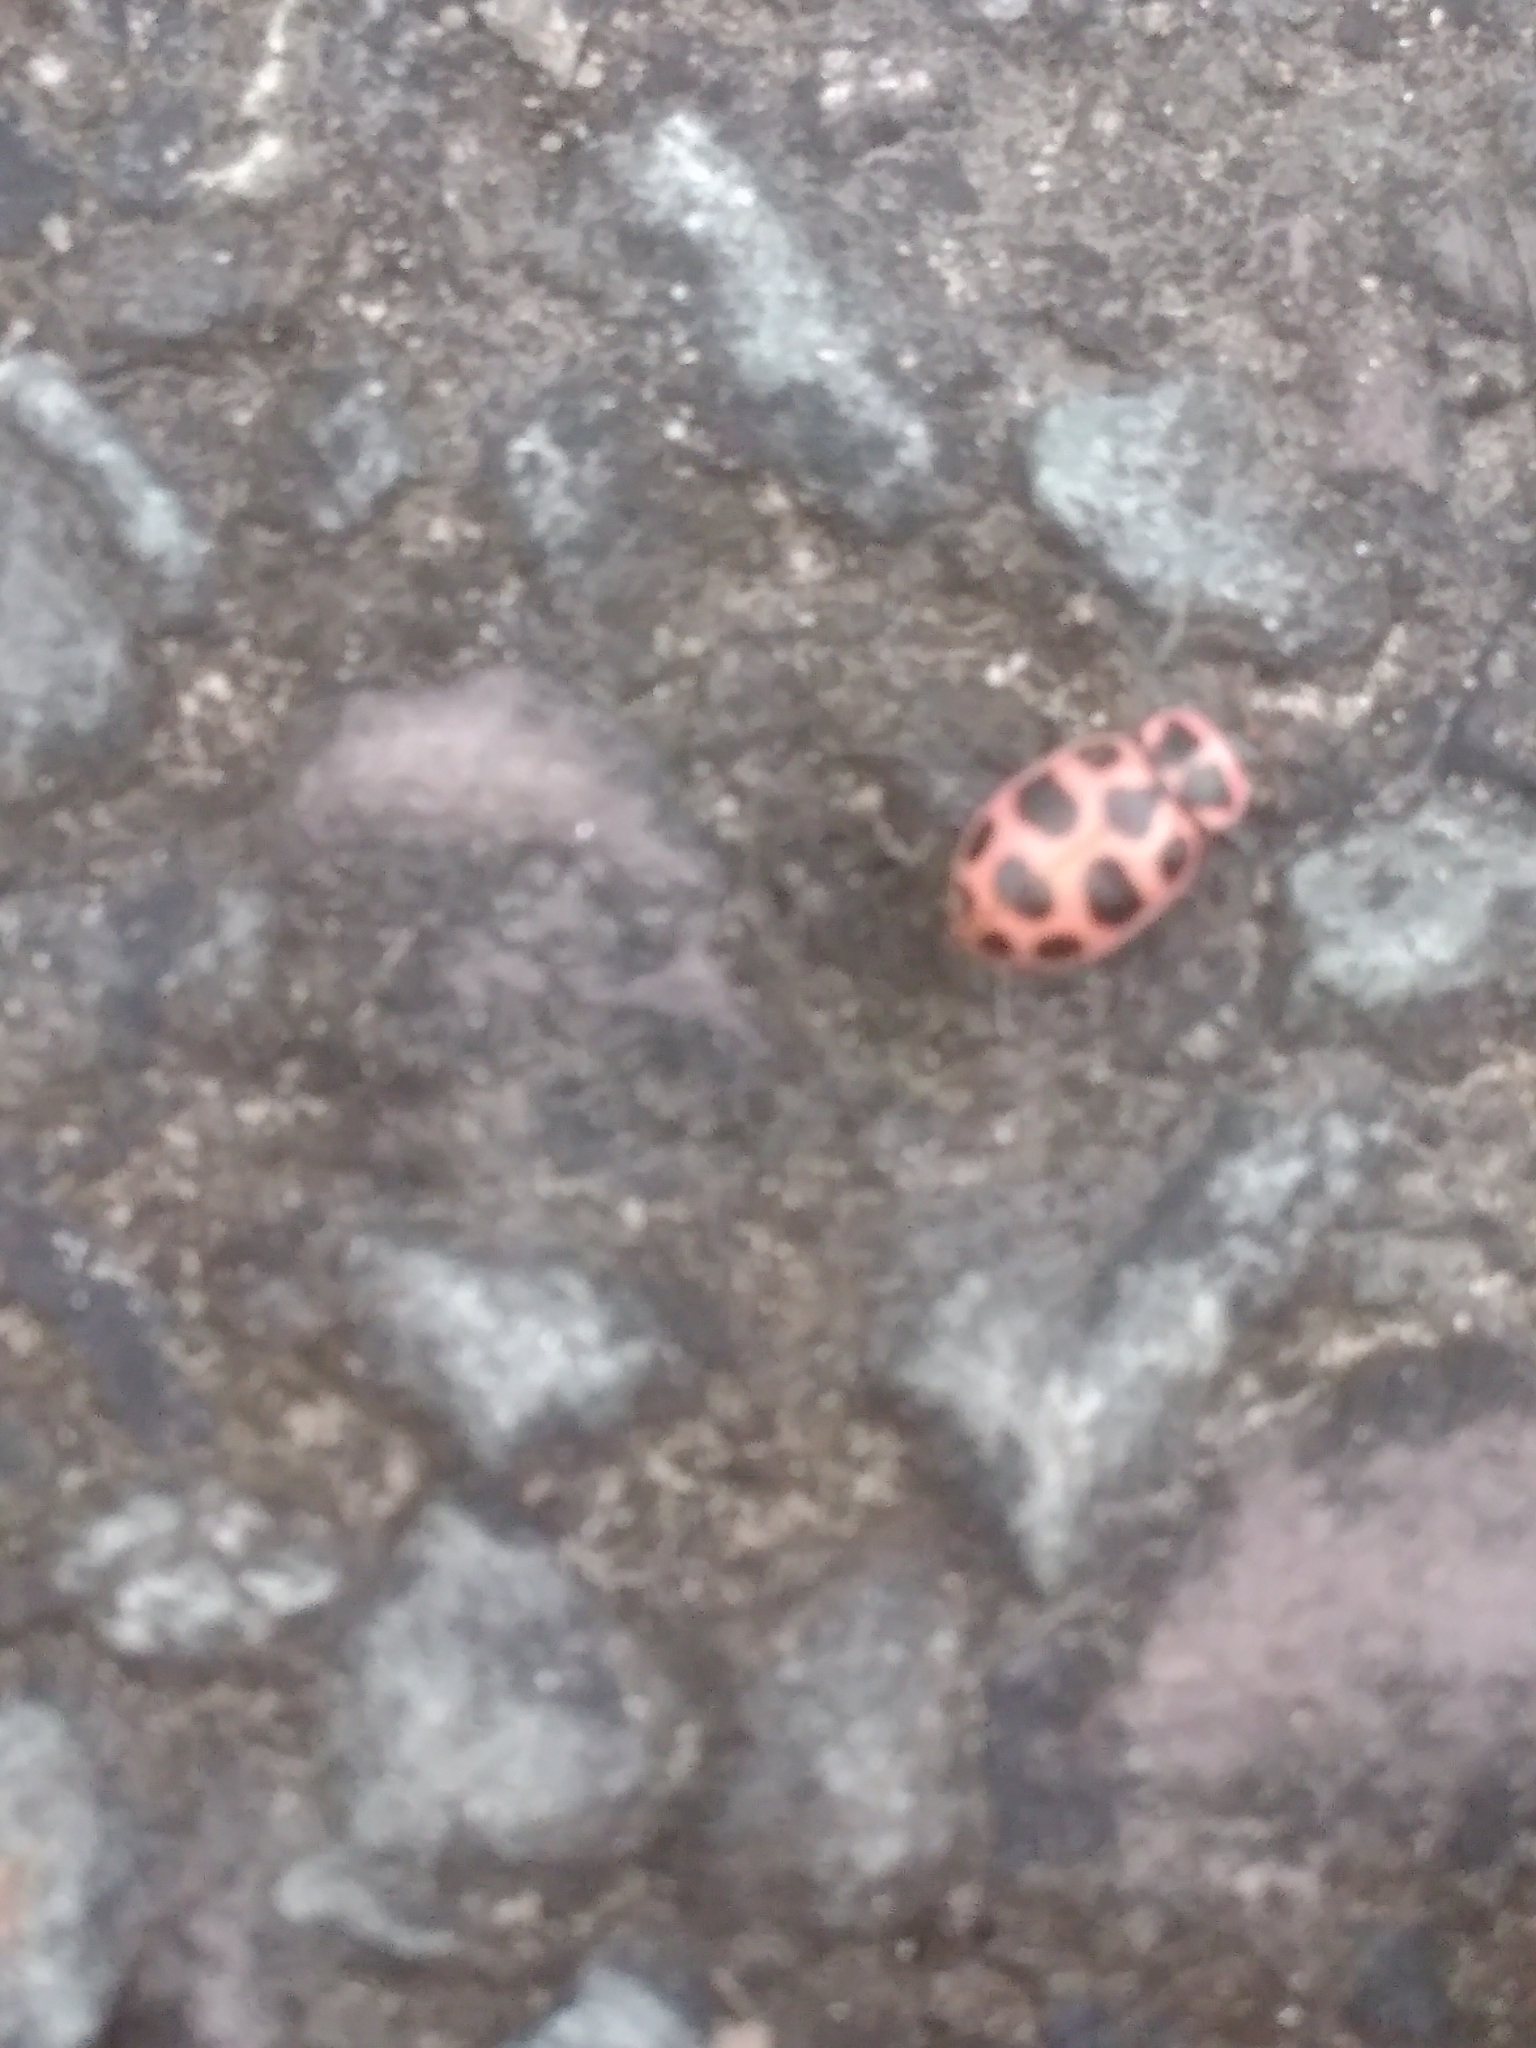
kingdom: Animalia
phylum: Arthropoda
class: Insecta
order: Coleoptera
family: Coccinellidae
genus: Coleomegilla
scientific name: Coleomegilla maculata
